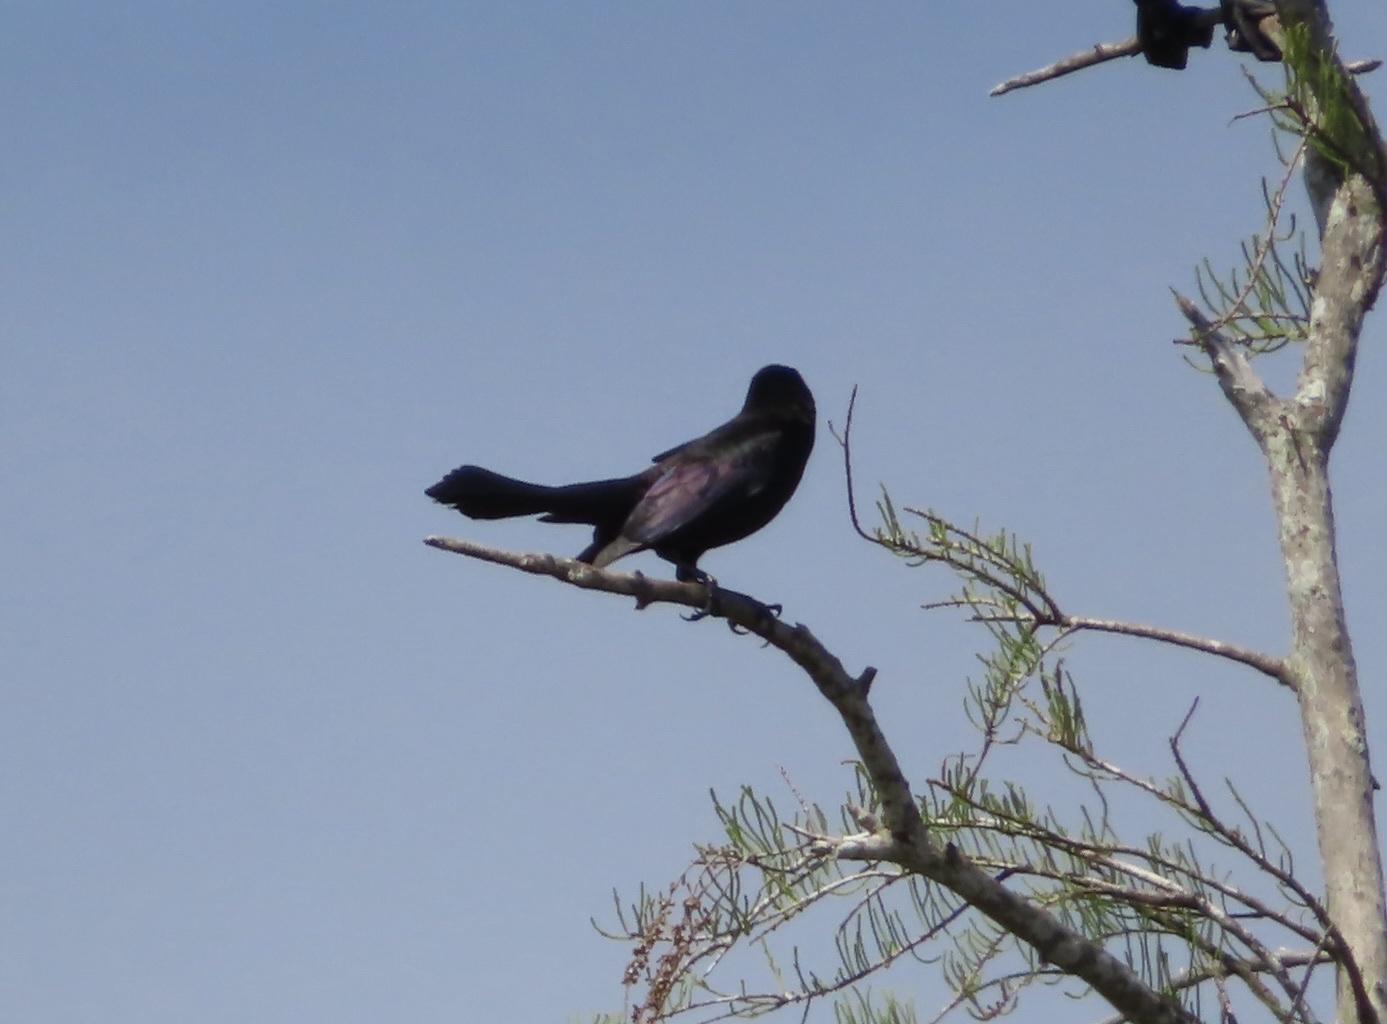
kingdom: Animalia
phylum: Chordata
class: Aves
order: Passeriformes
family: Icteridae
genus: Quiscalus
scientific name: Quiscalus quiscula
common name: Common grackle
